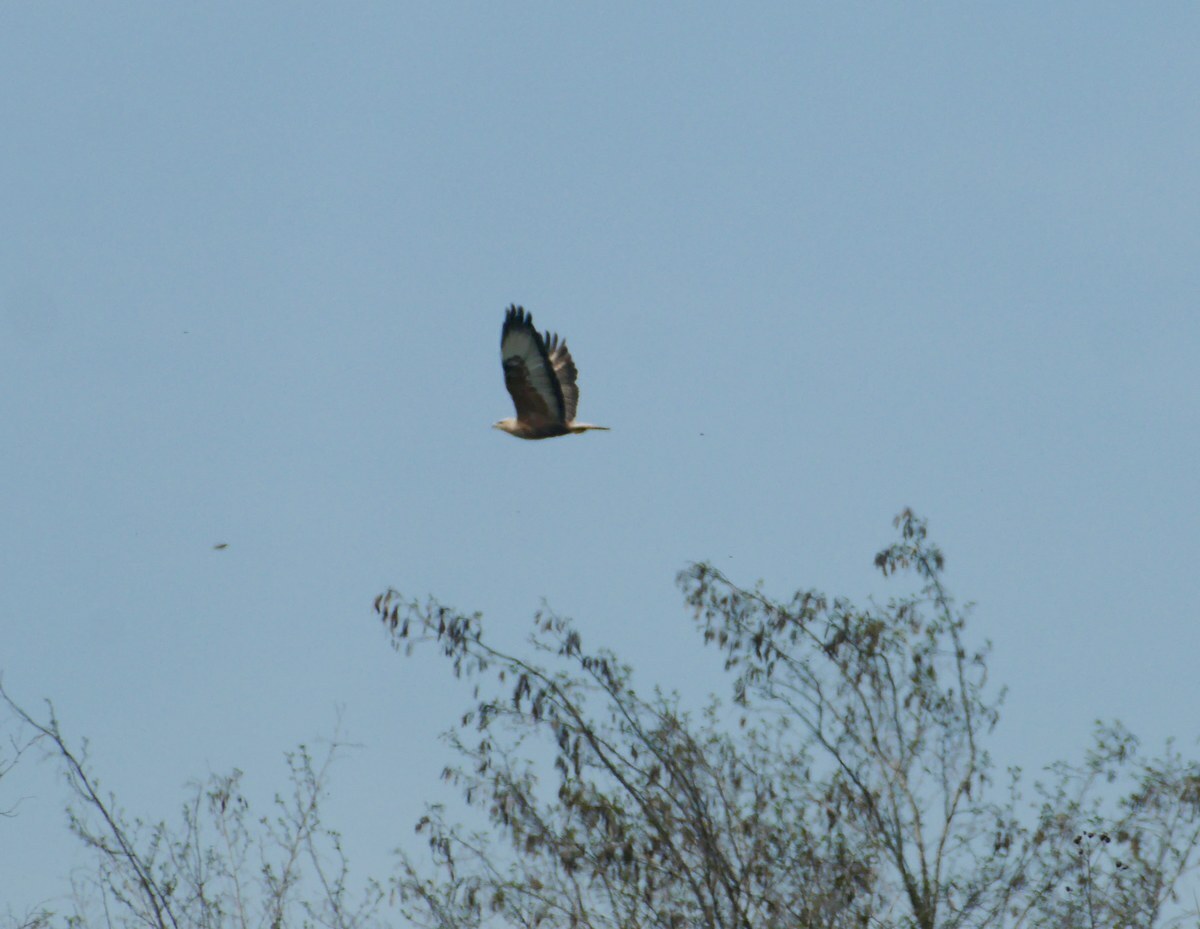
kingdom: Animalia
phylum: Chordata
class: Aves
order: Accipitriformes
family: Accipitridae
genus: Buteo
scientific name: Buteo rufinus
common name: Long-legged buzzard
